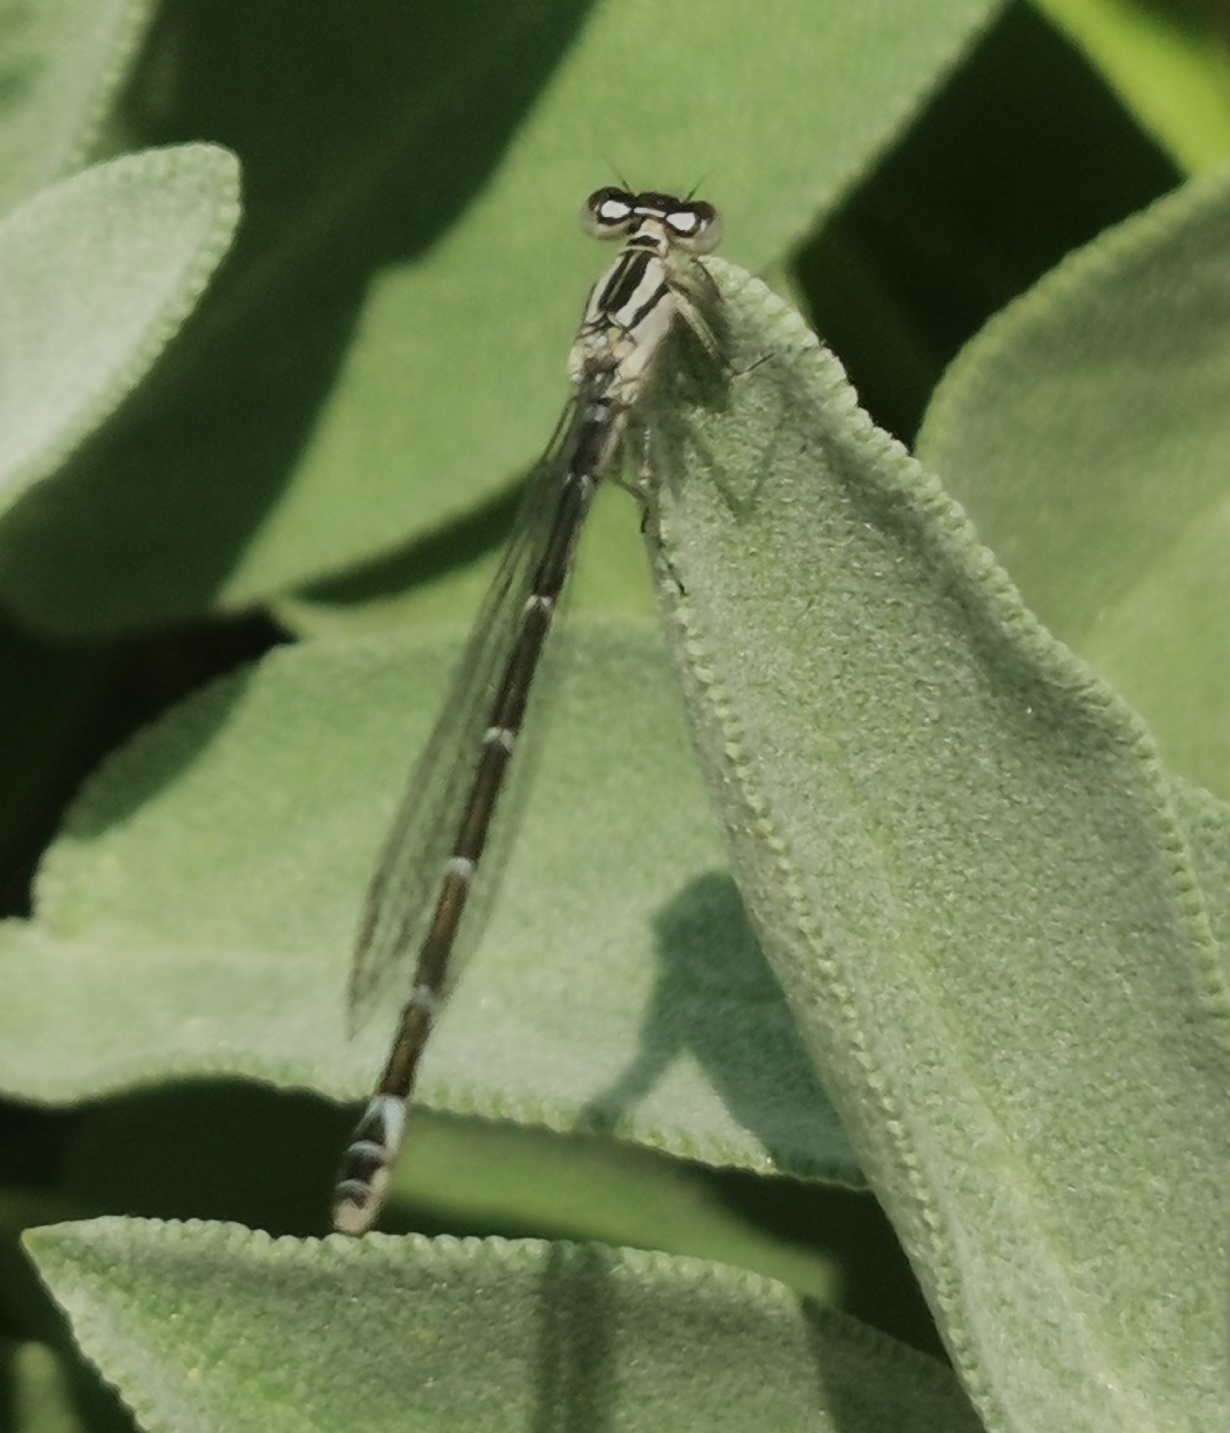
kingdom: Animalia
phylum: Arthropoda
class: Insecta
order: Odonata
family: Coenagrionidae
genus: Enallagma
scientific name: Enallagma cyathigerum
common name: Common blue damselfly
